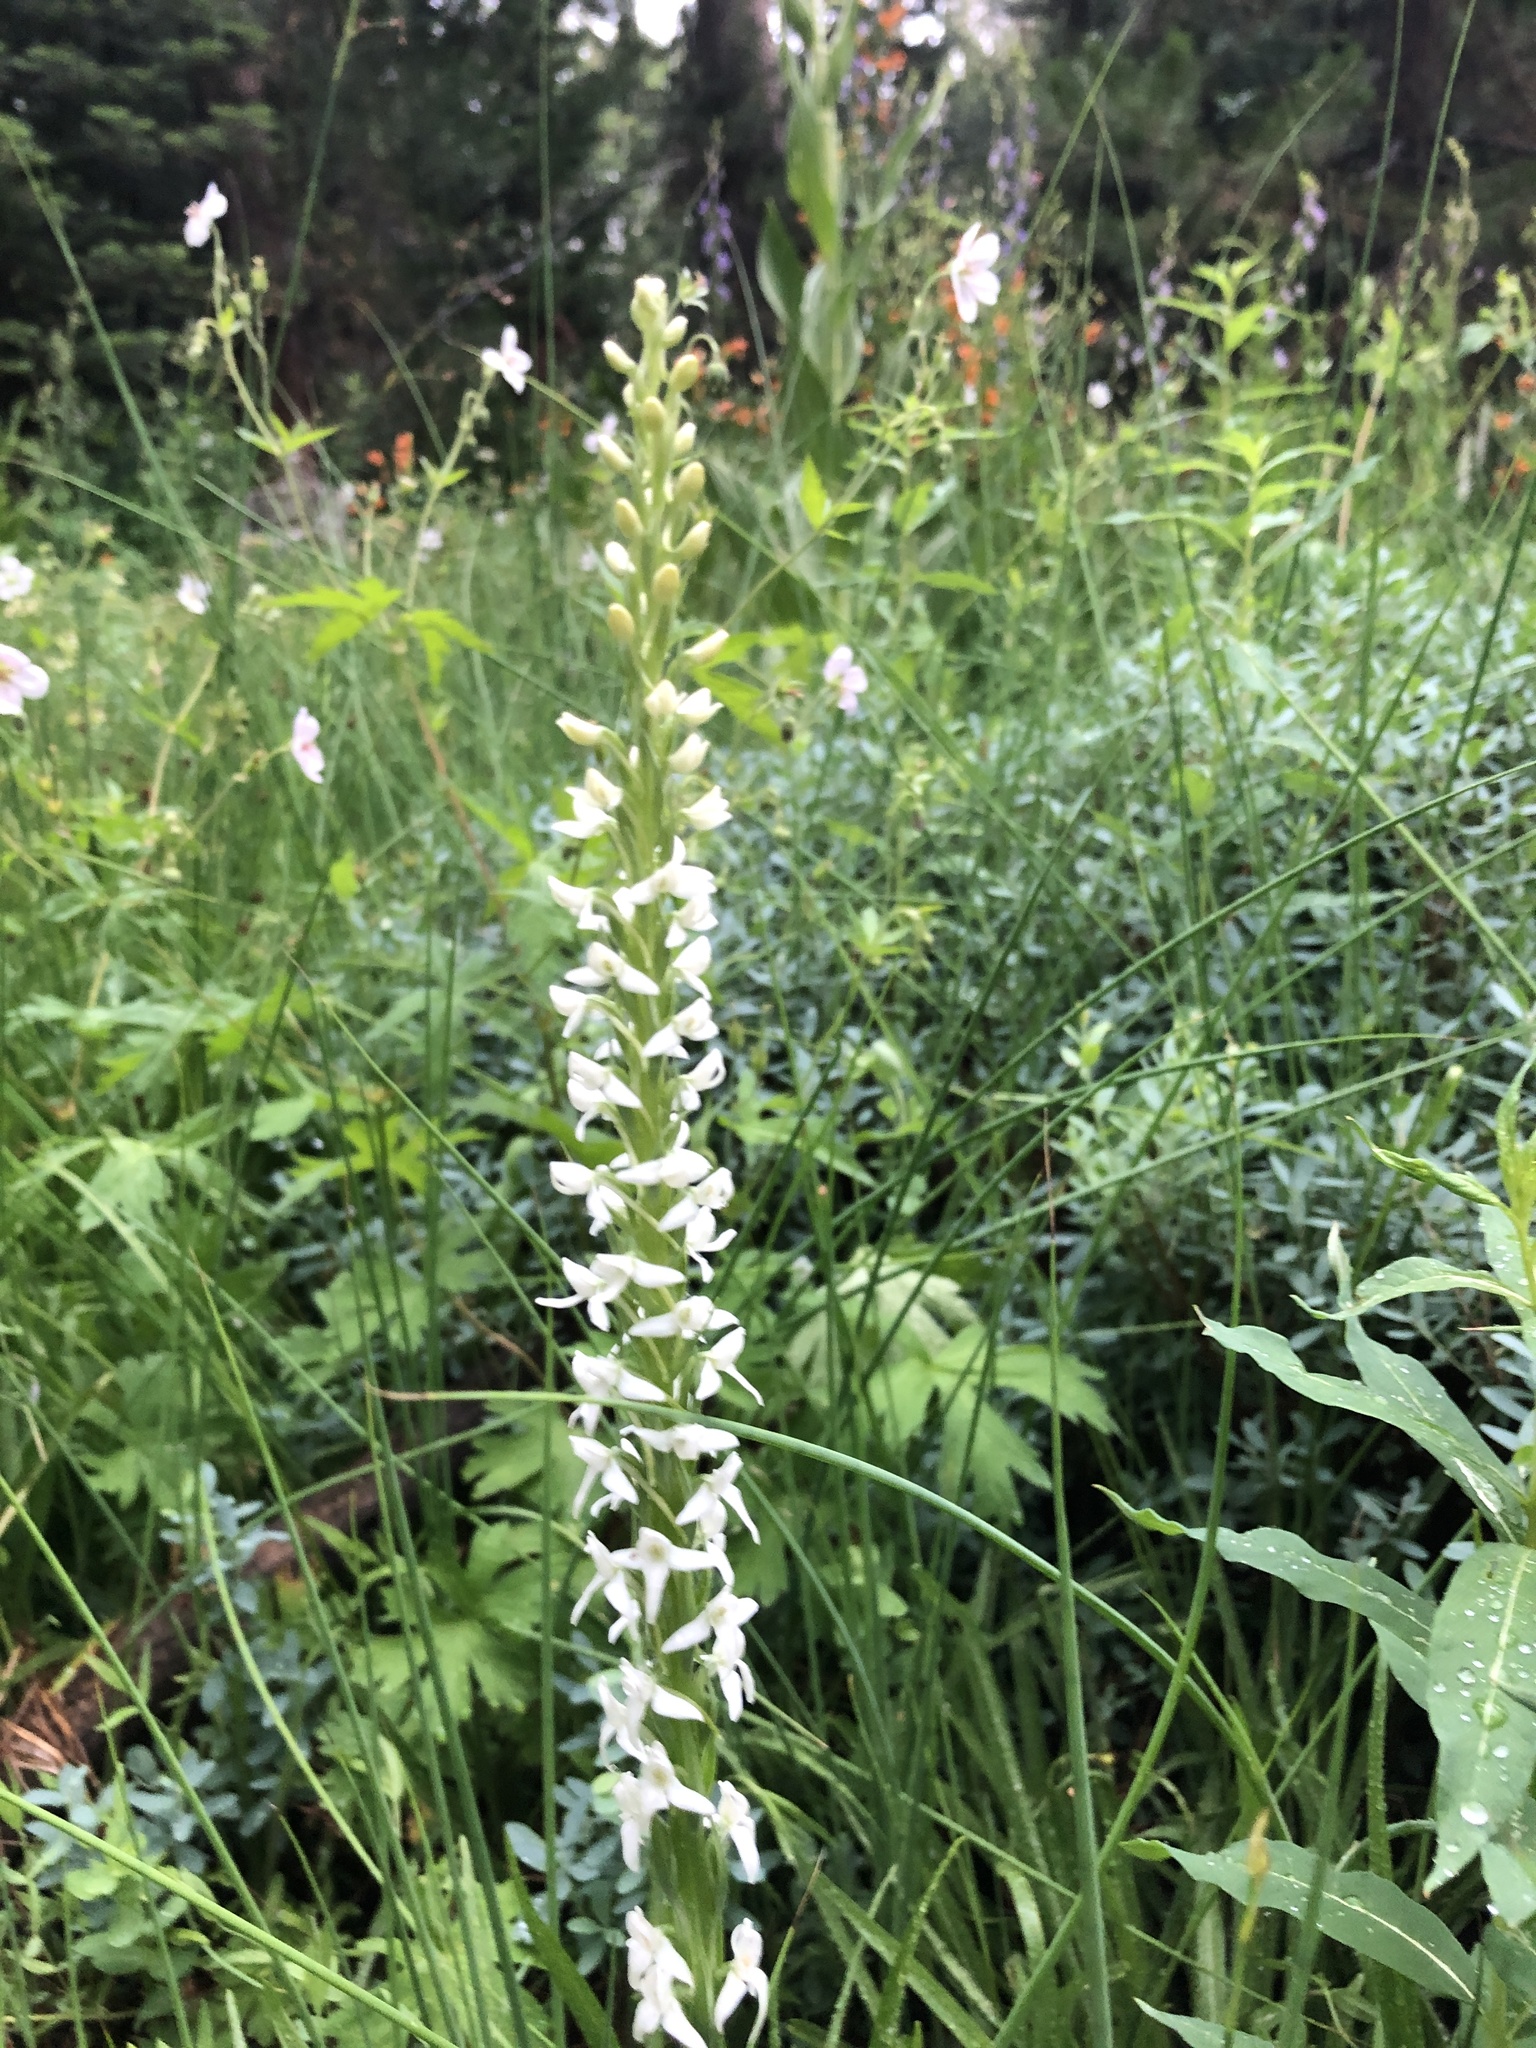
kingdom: Plantae
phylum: Tracheophyta
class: Liliopsida
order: Asparagales
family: Orchidaceae
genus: Platanthera
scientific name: Platanthera dilatata
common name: Bog candles
